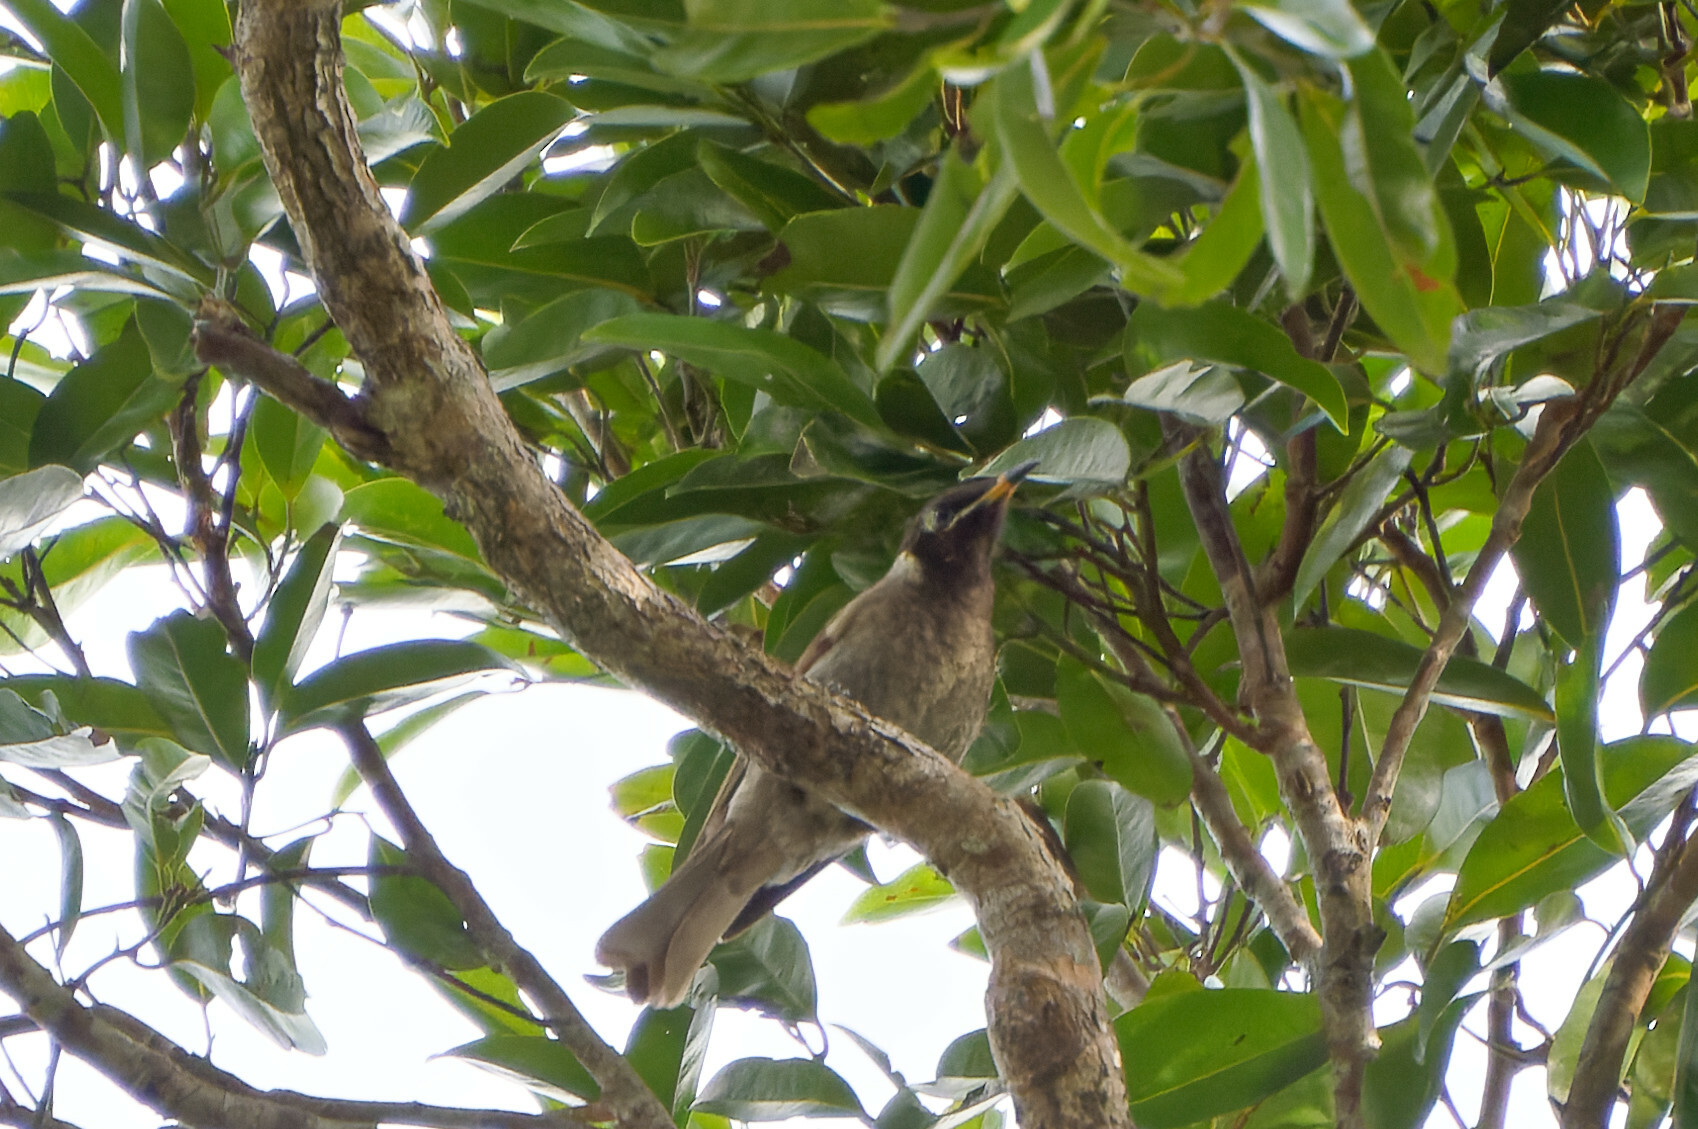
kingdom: Animalia
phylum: Chordata
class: Aves
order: Passeriformes
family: Meliphagidae
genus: Bolemoreus
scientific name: Bolemoreus frenatus
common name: Bridled honeyeater
